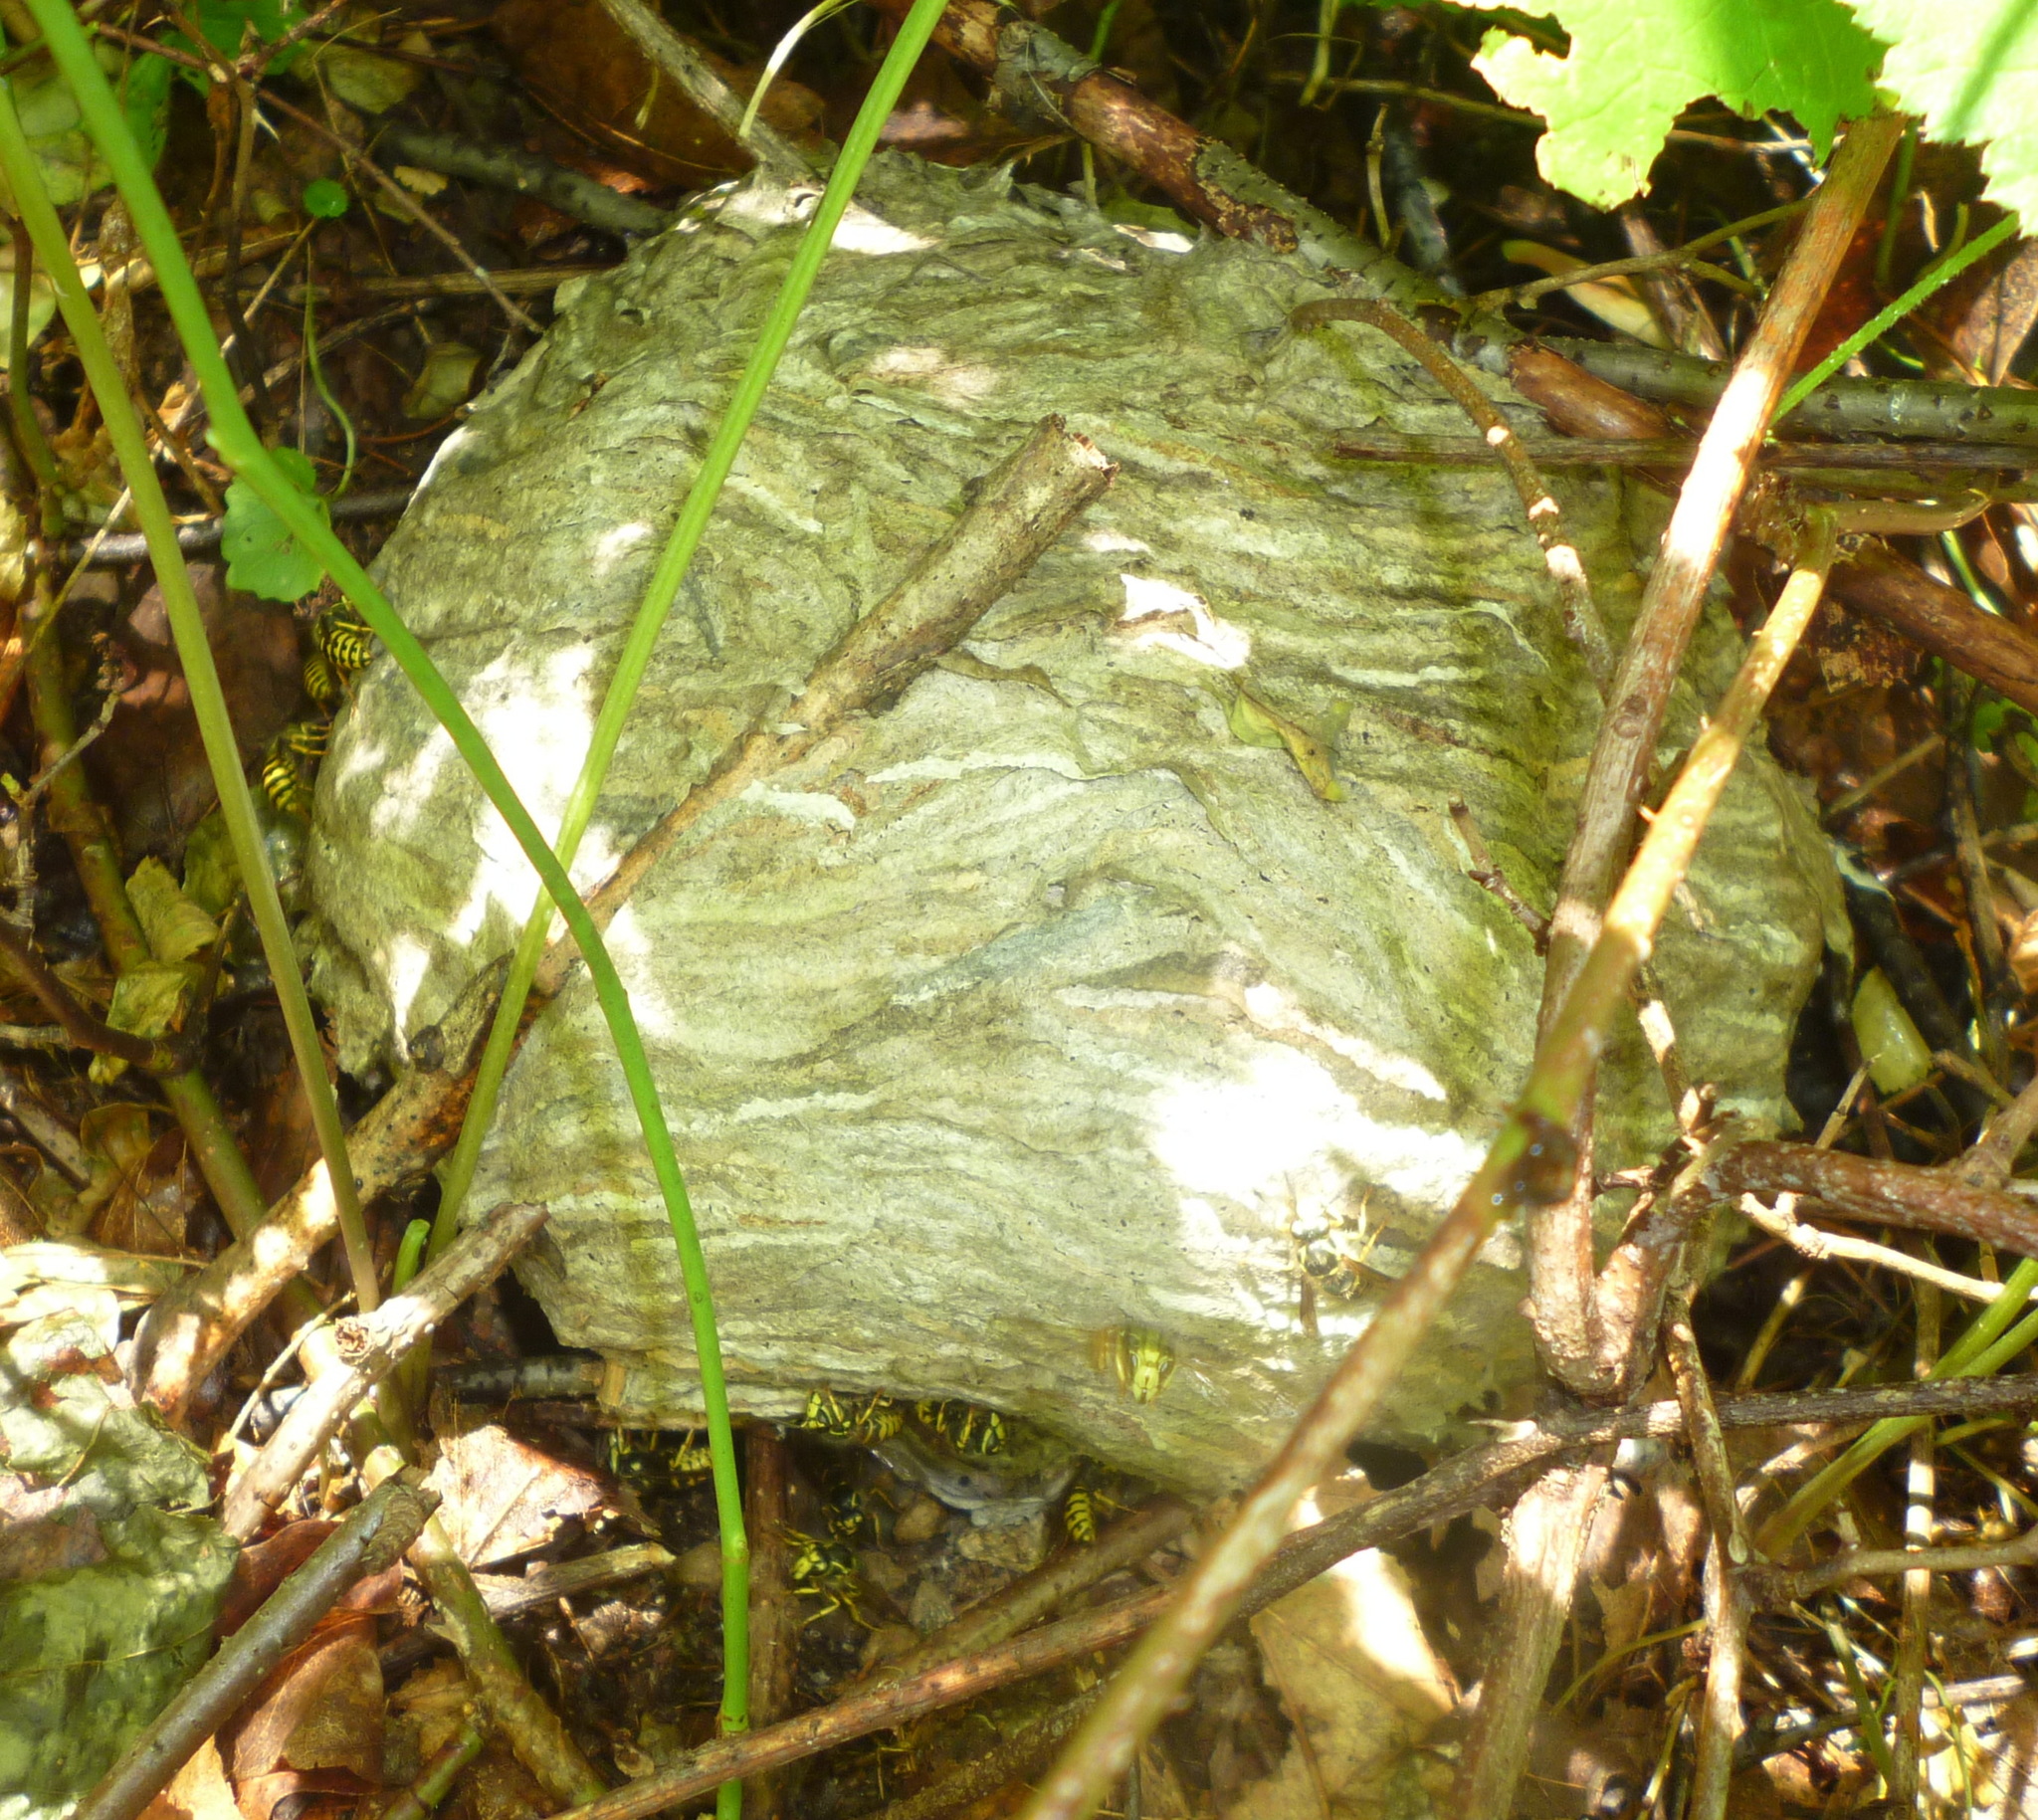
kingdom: Animalia
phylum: Arthropoda
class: Insecta
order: Hymenoptera
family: Vespidae
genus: Dolichovespula
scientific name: Dolichovespula arenaria
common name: Aerial yellowjacket
